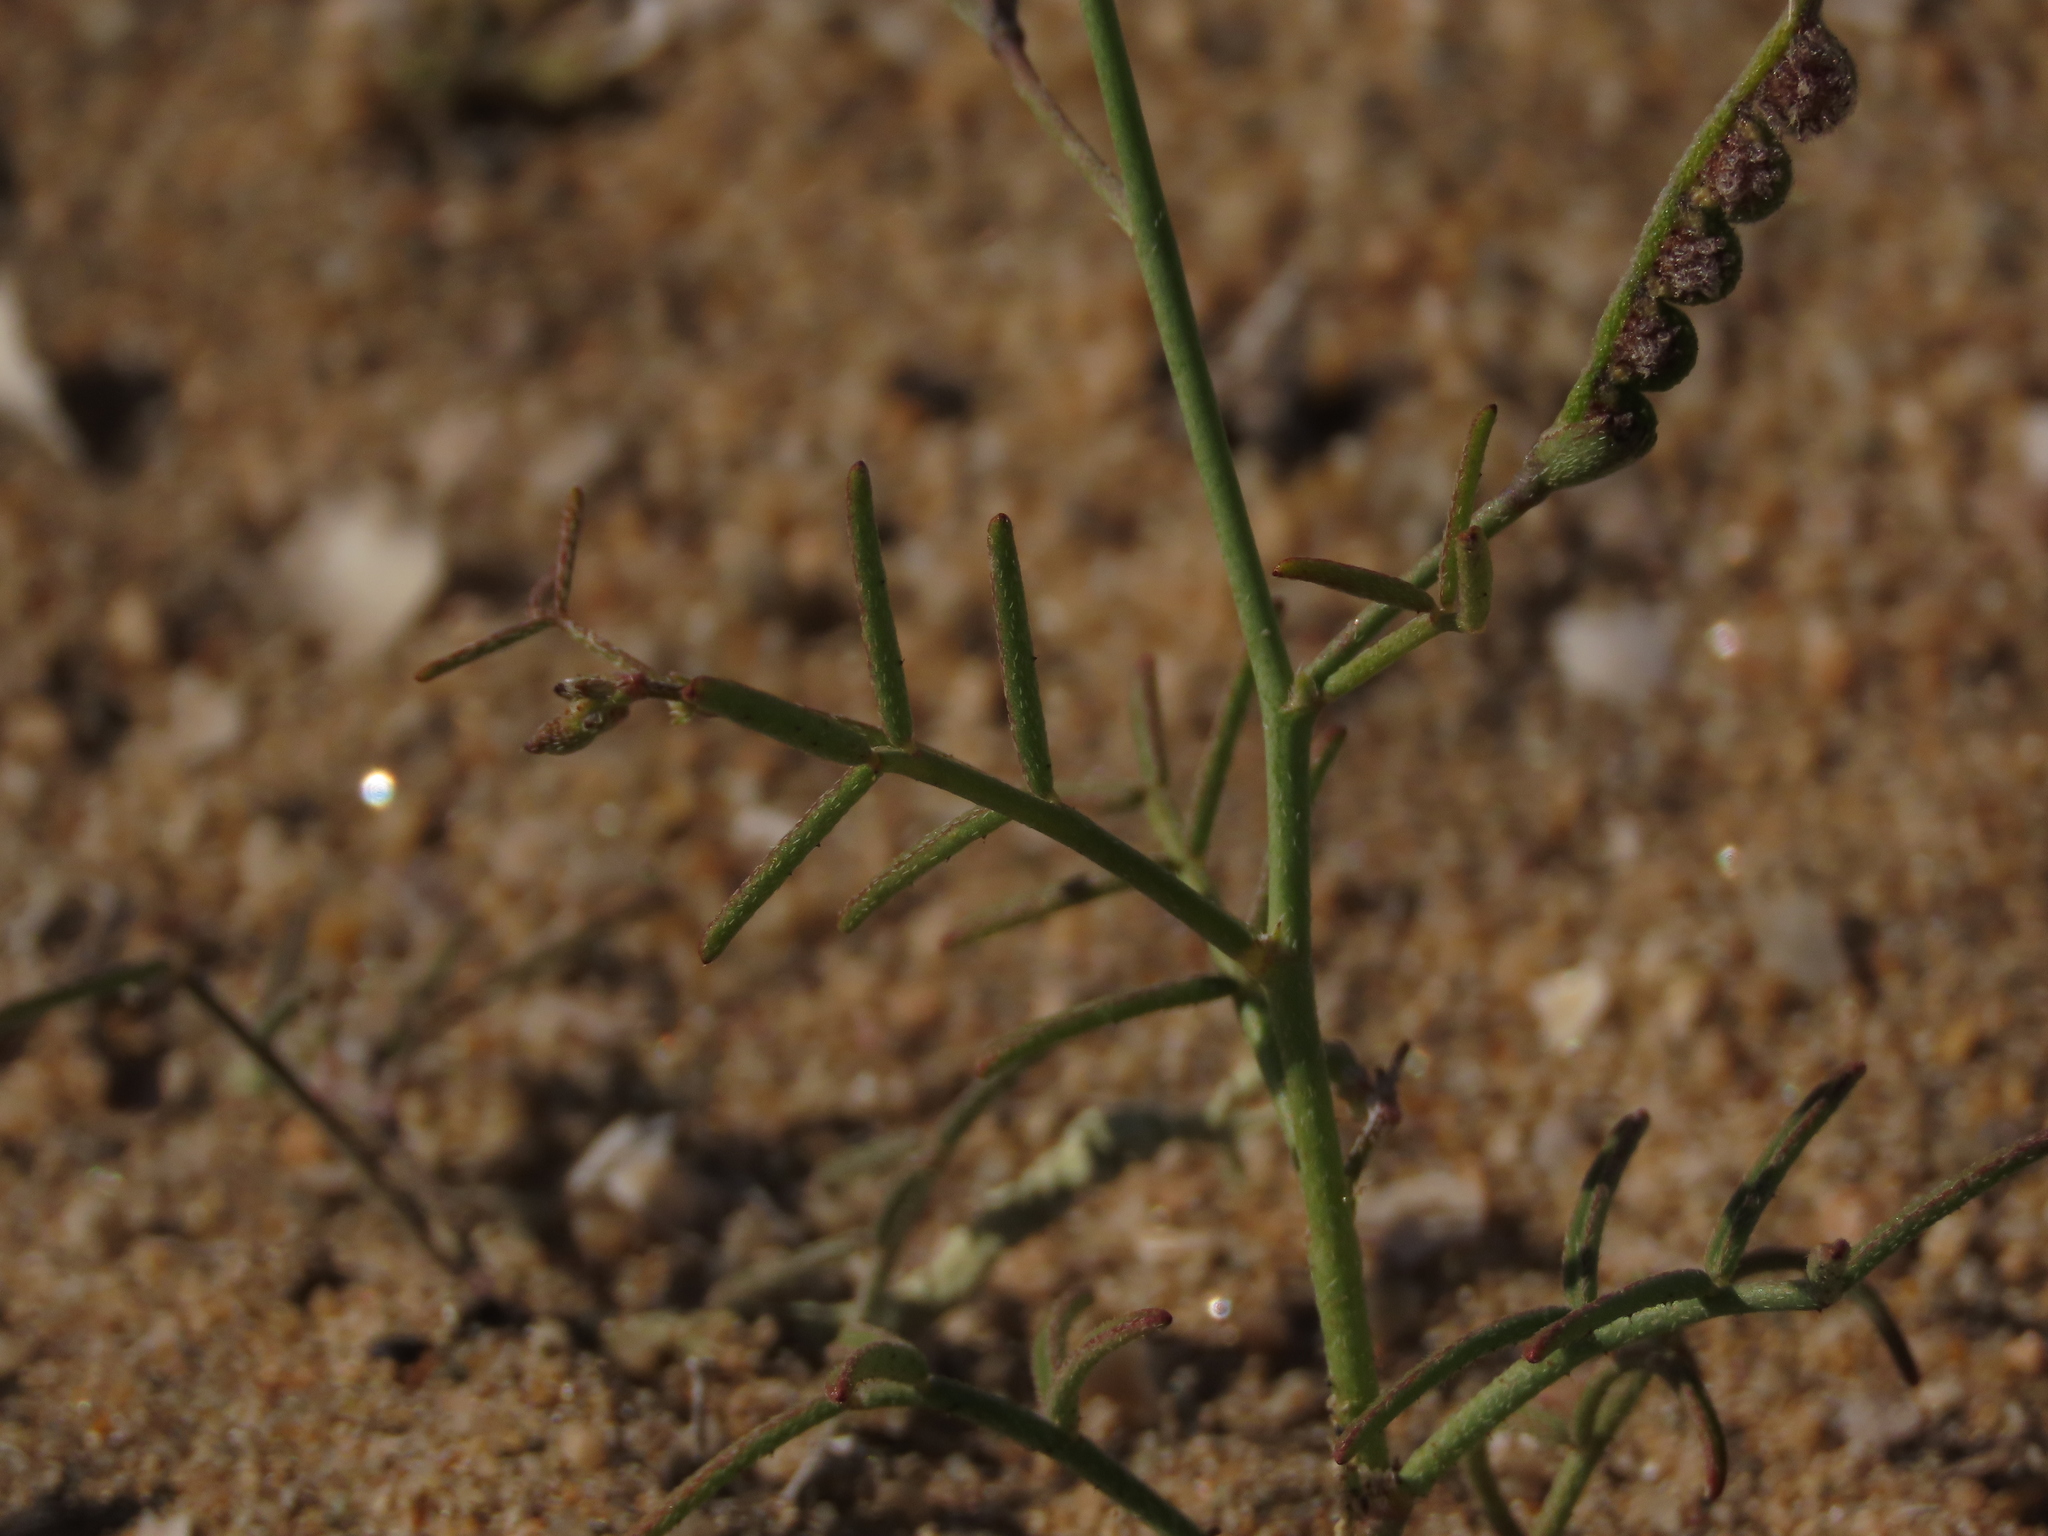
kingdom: Plantae
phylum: Tracheophyta
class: Magnoliopsida
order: Fabales
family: Fabaceae
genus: Adesmia
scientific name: Adesmia filifolia
